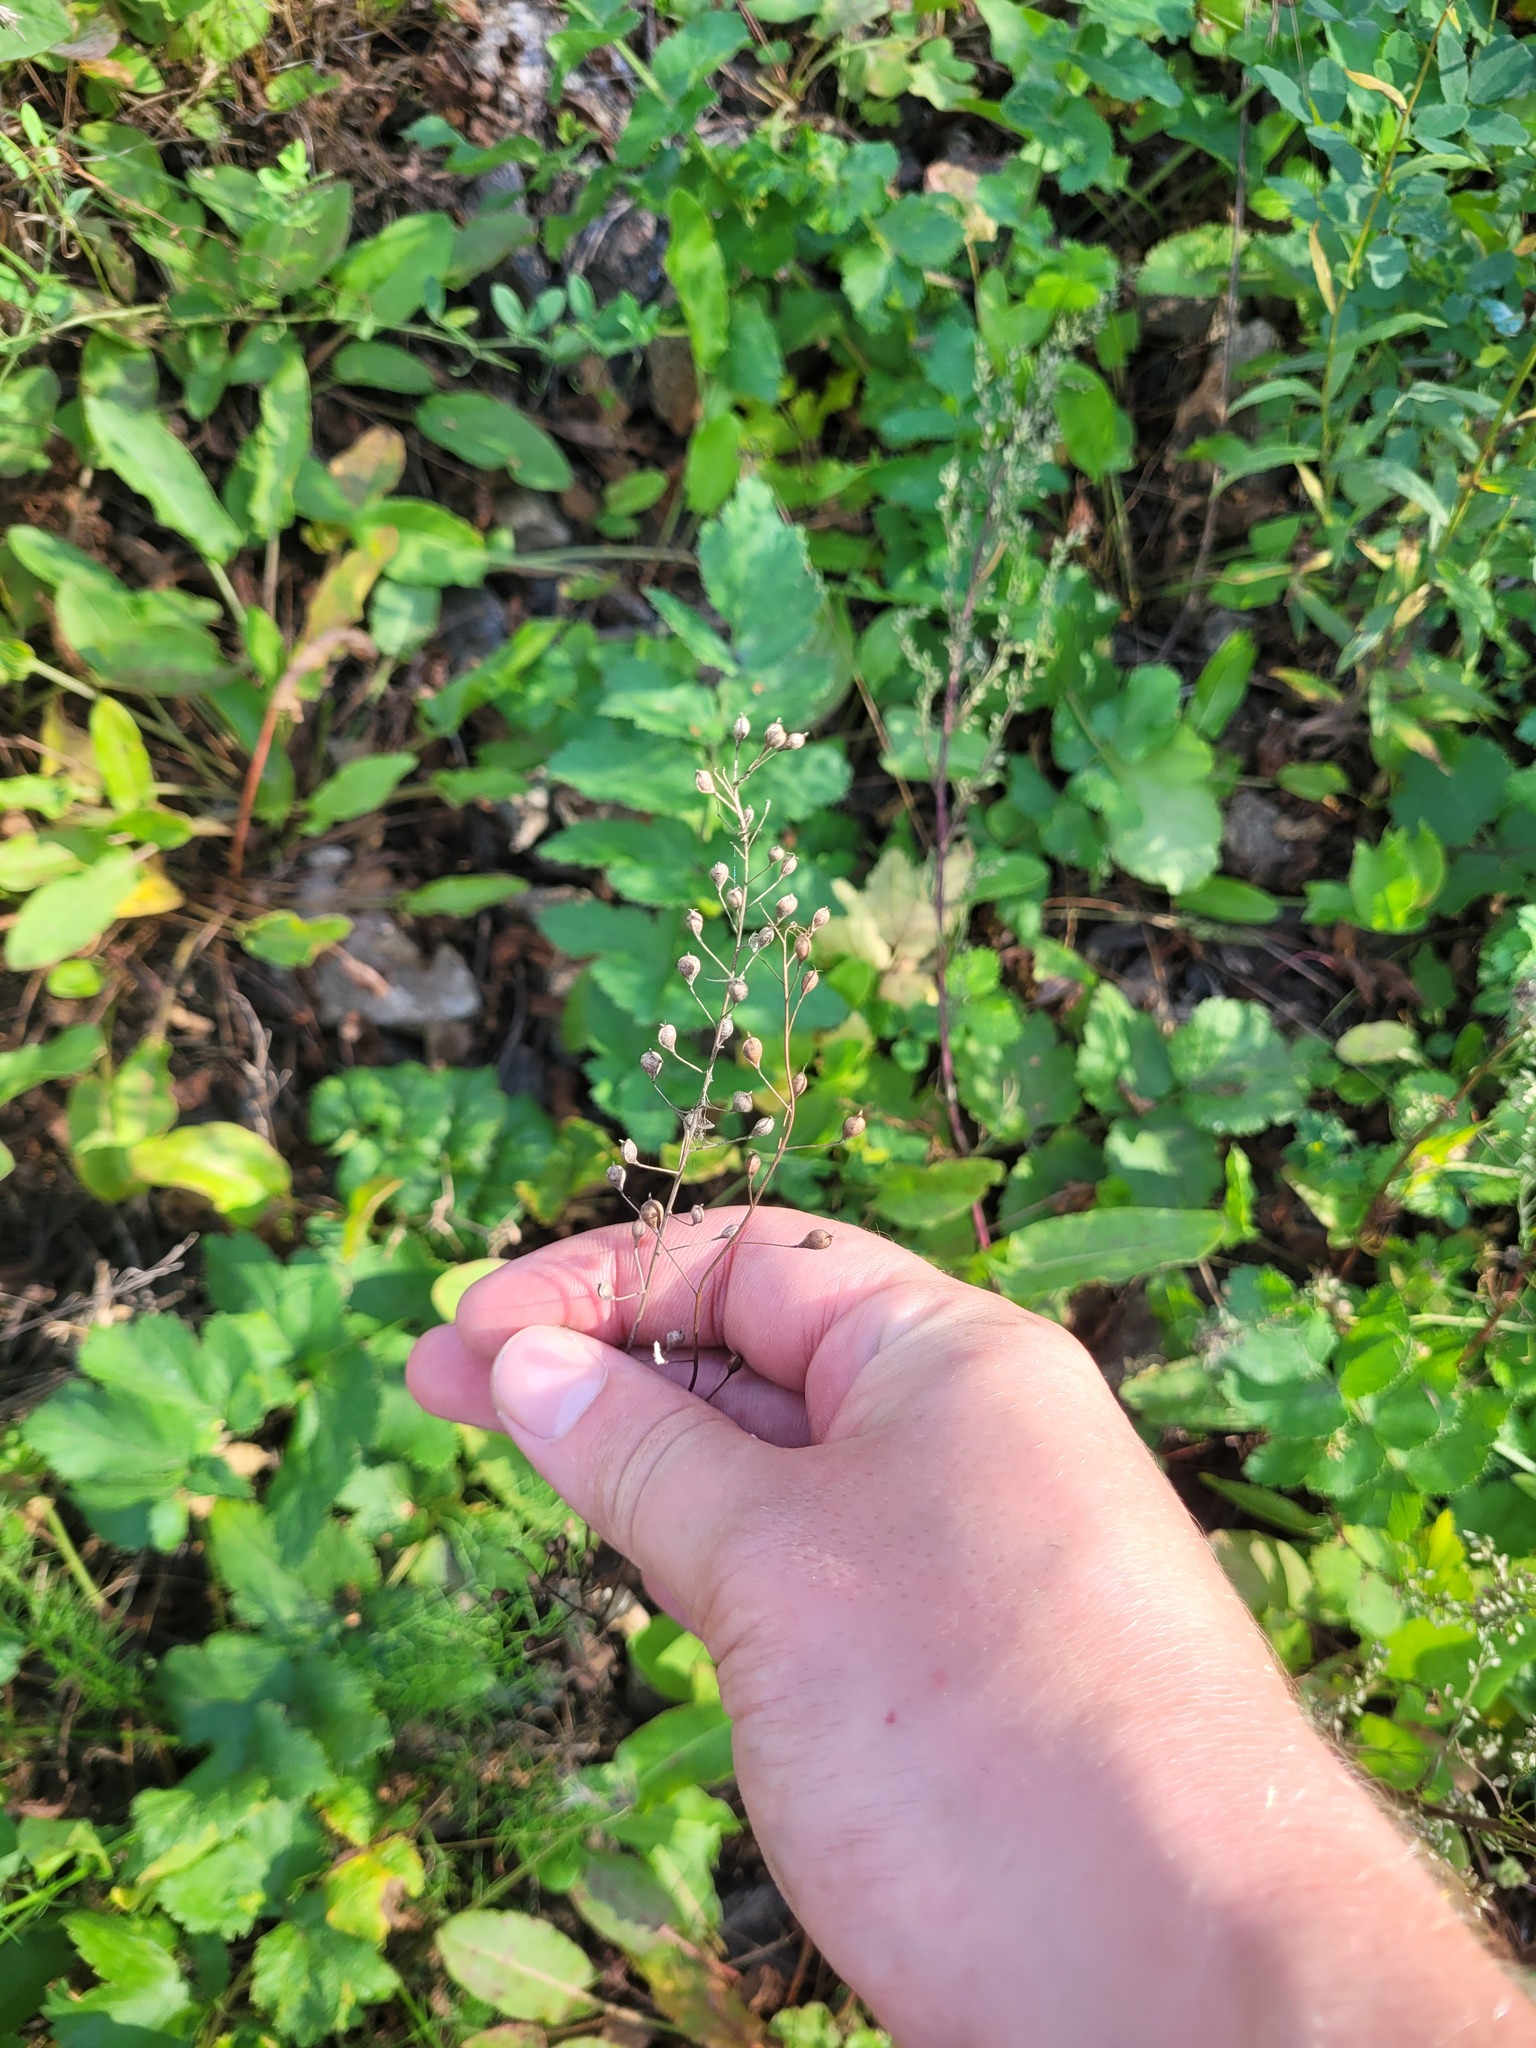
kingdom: Plantae
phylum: Tracheophyta
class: Magnoliopsida
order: Brassicales
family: Brassicaceae
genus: Camelina
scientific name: Camelina microcarpa
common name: Lesser gold-of-pleasure
